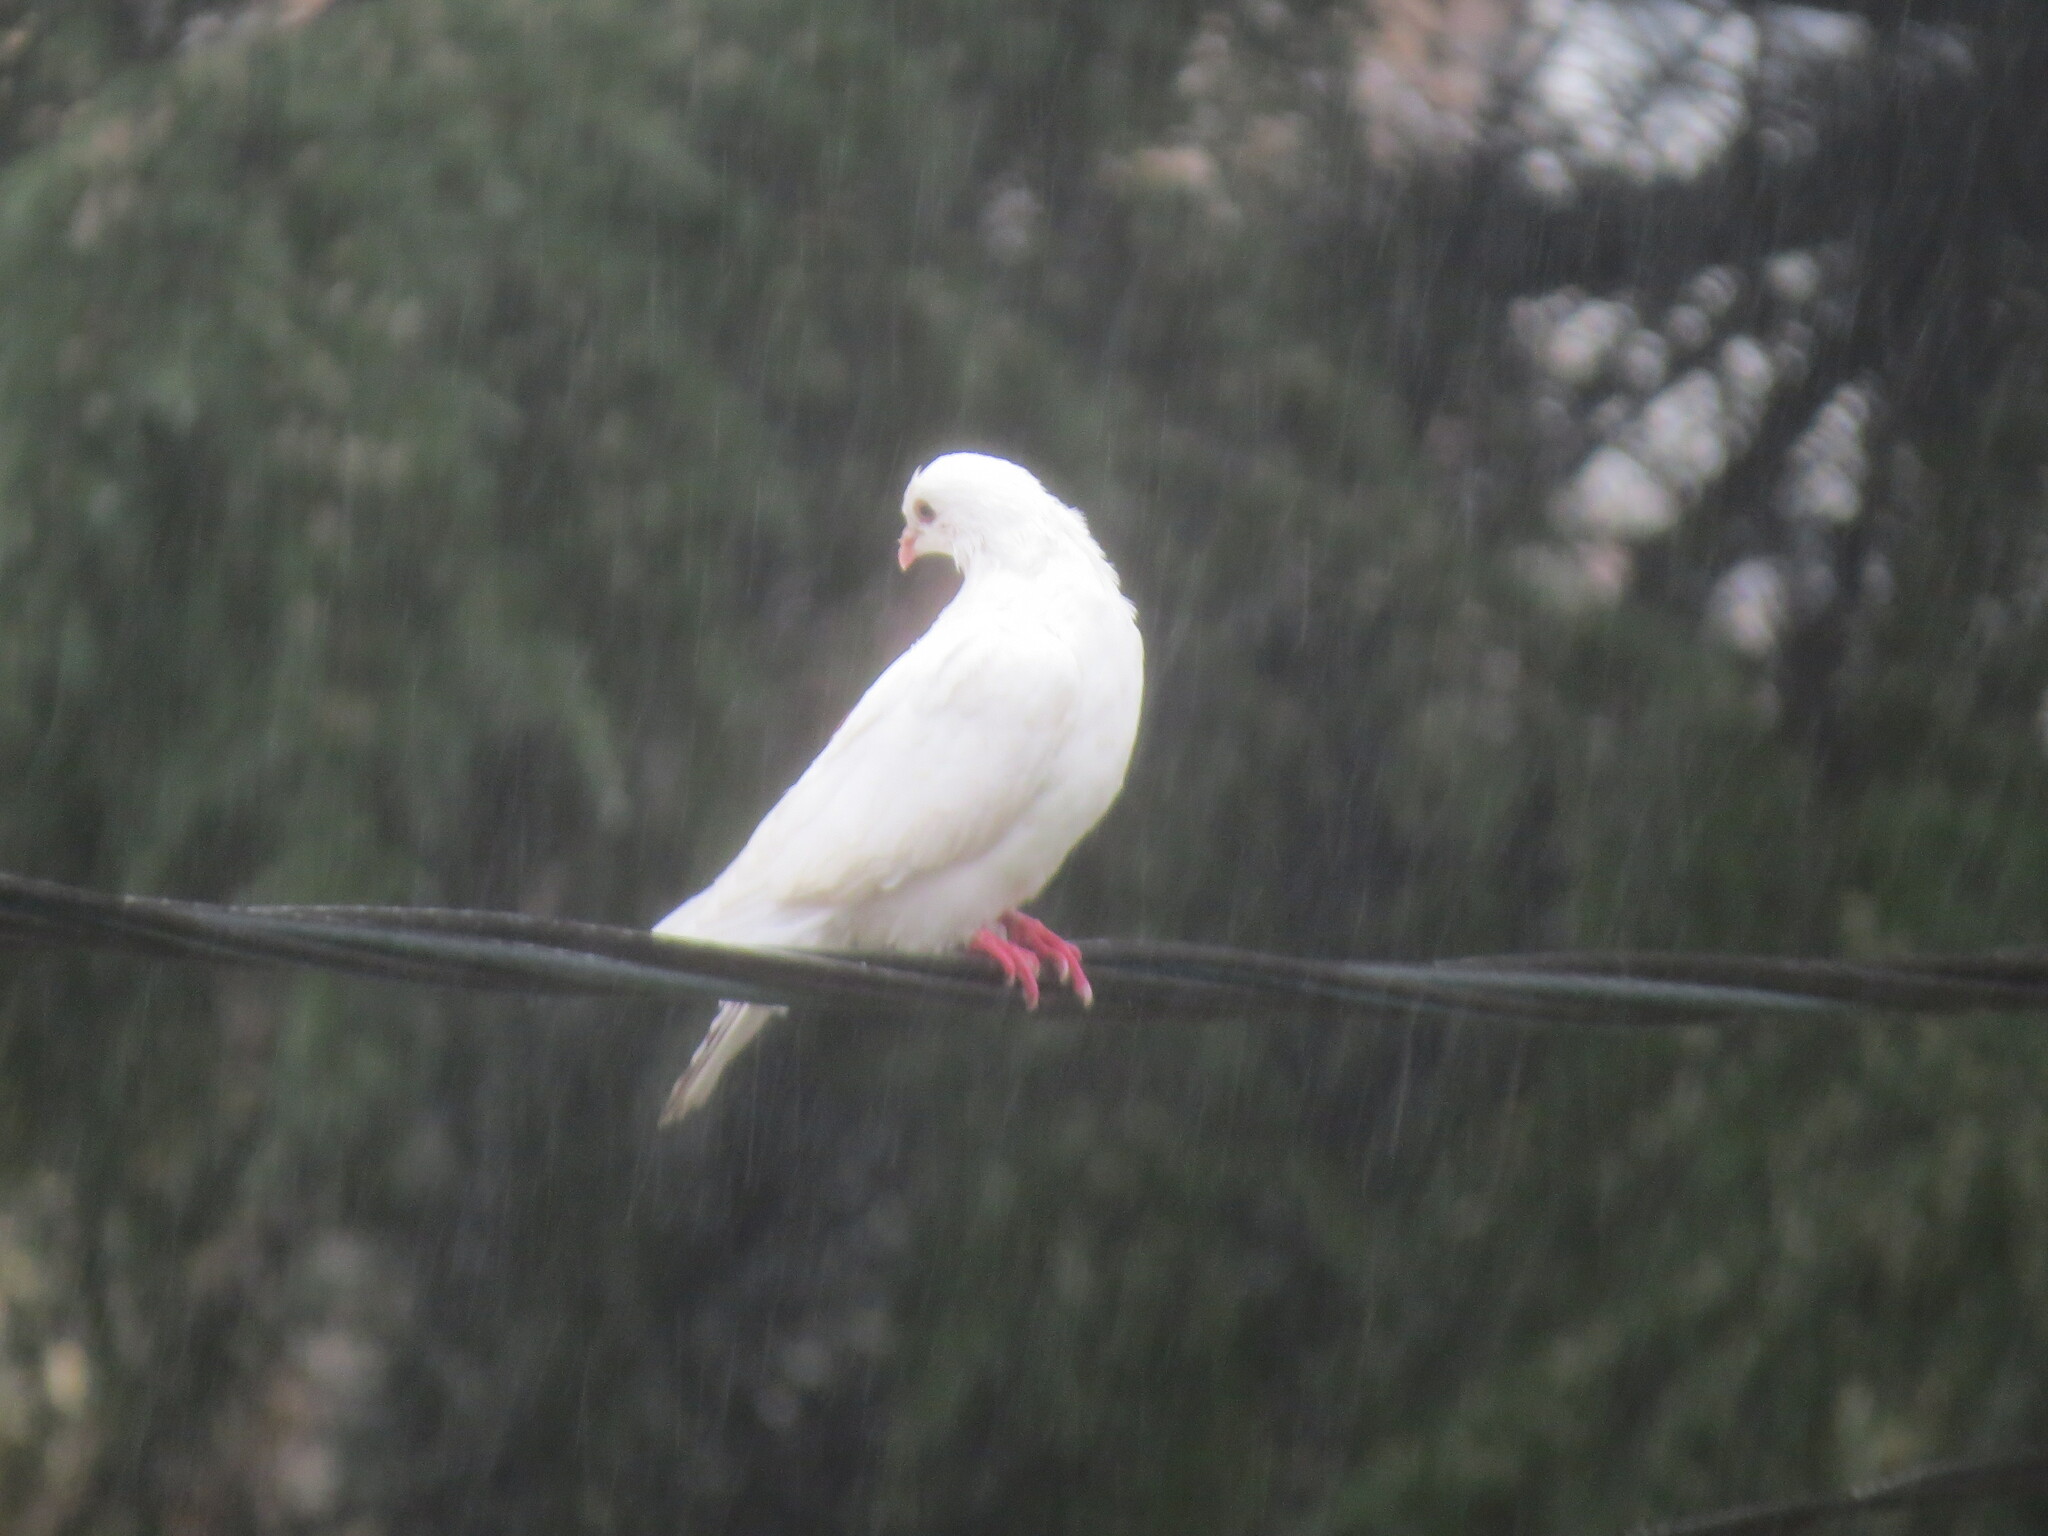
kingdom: Animalia
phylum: Chordata
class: Aves
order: Columbiformes
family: Columbidae
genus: Columba
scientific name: Columba livia
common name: Rock pigeon
